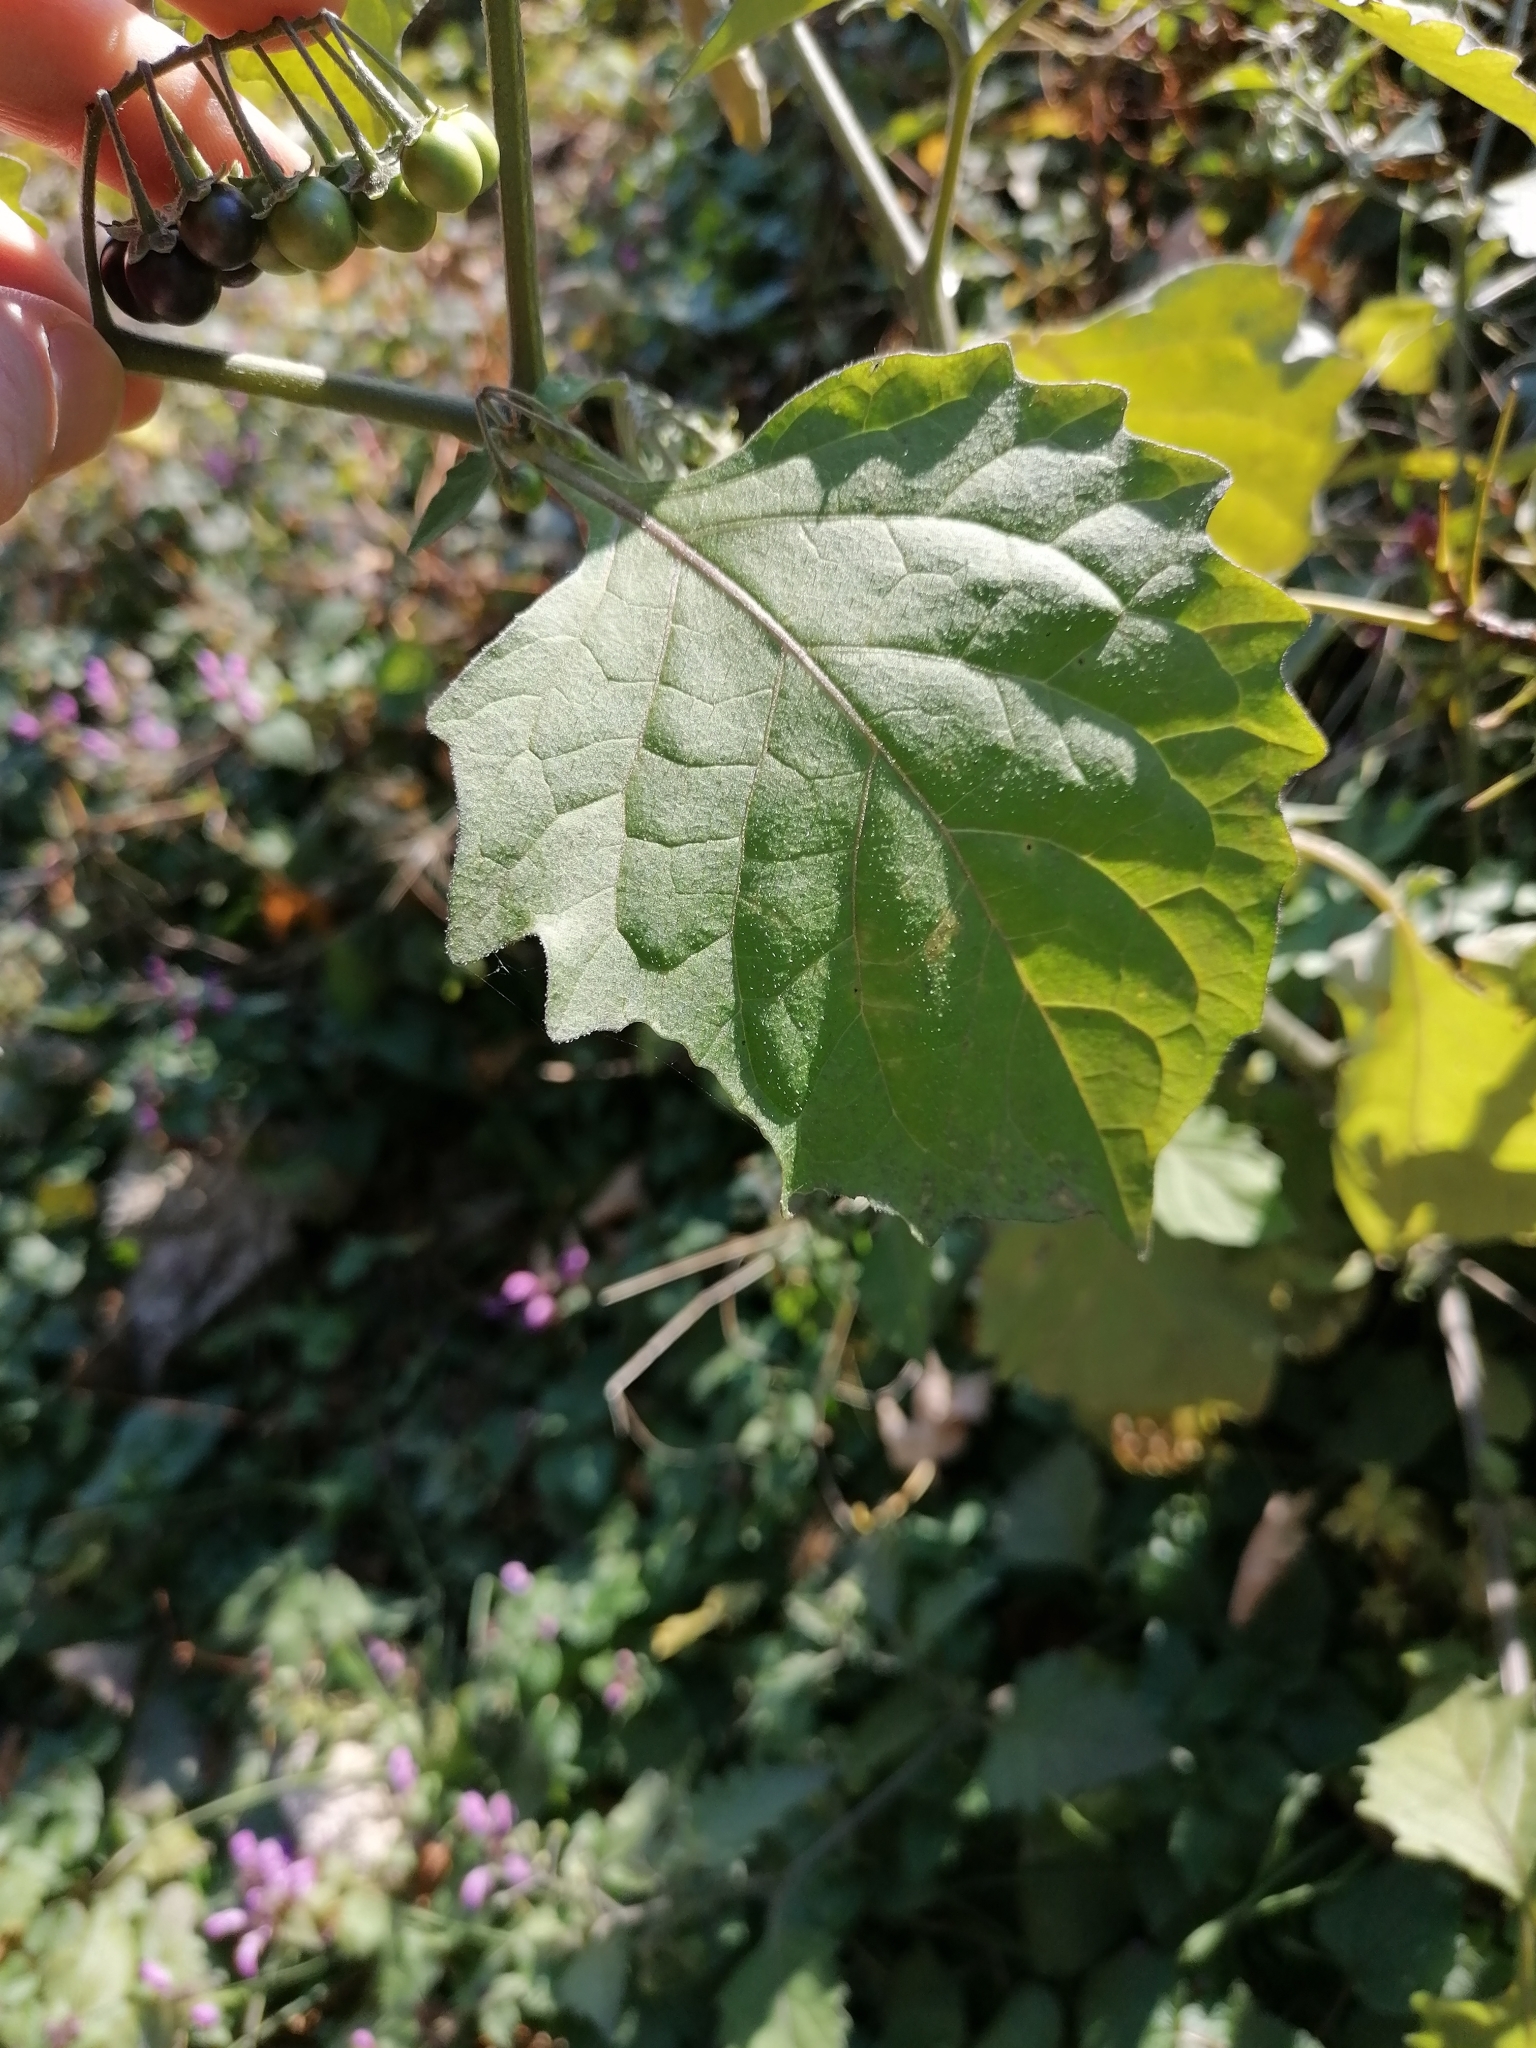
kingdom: Plantae
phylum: Tracheophyta
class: Magnoliopsida
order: Solanales
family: Solanaceae
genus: Solanum
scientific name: Solanum nigrum
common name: Black nightshade
